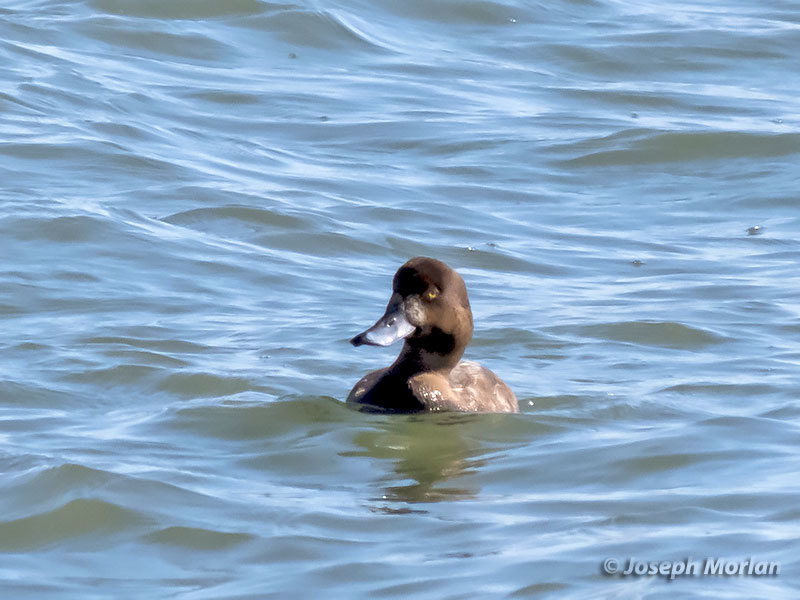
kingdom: Animalia
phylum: Chordata
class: Aves
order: Anseriformes
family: Anatidae
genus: Aythya
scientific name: Aythya marila
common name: Greater scaup
